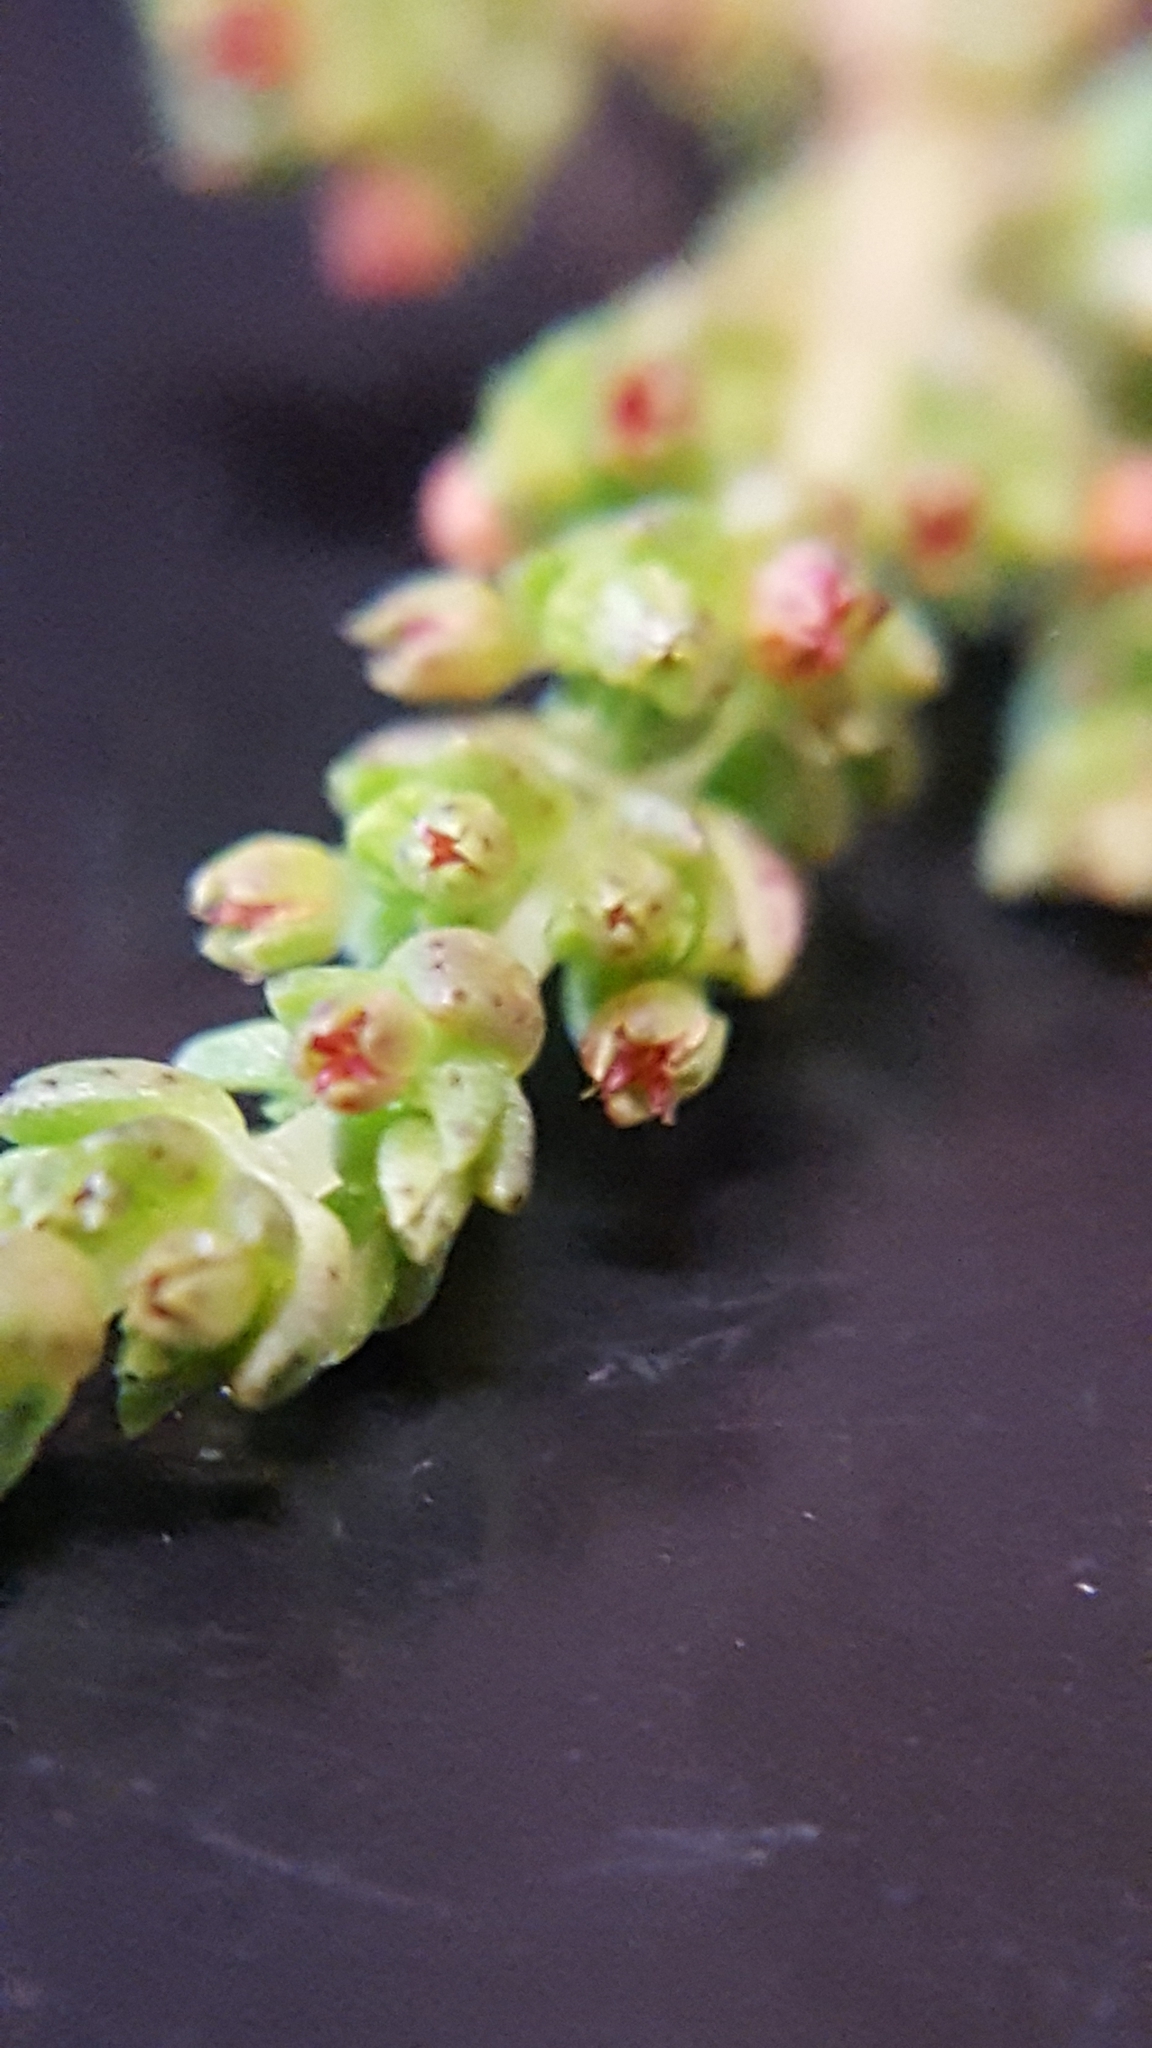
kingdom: Plantae
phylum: Tracheophyta
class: Magnoliopsida
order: Saxifragales
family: Crassulaceae
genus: Crassula
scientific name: Crassula connata
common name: Erect pygmyweed
